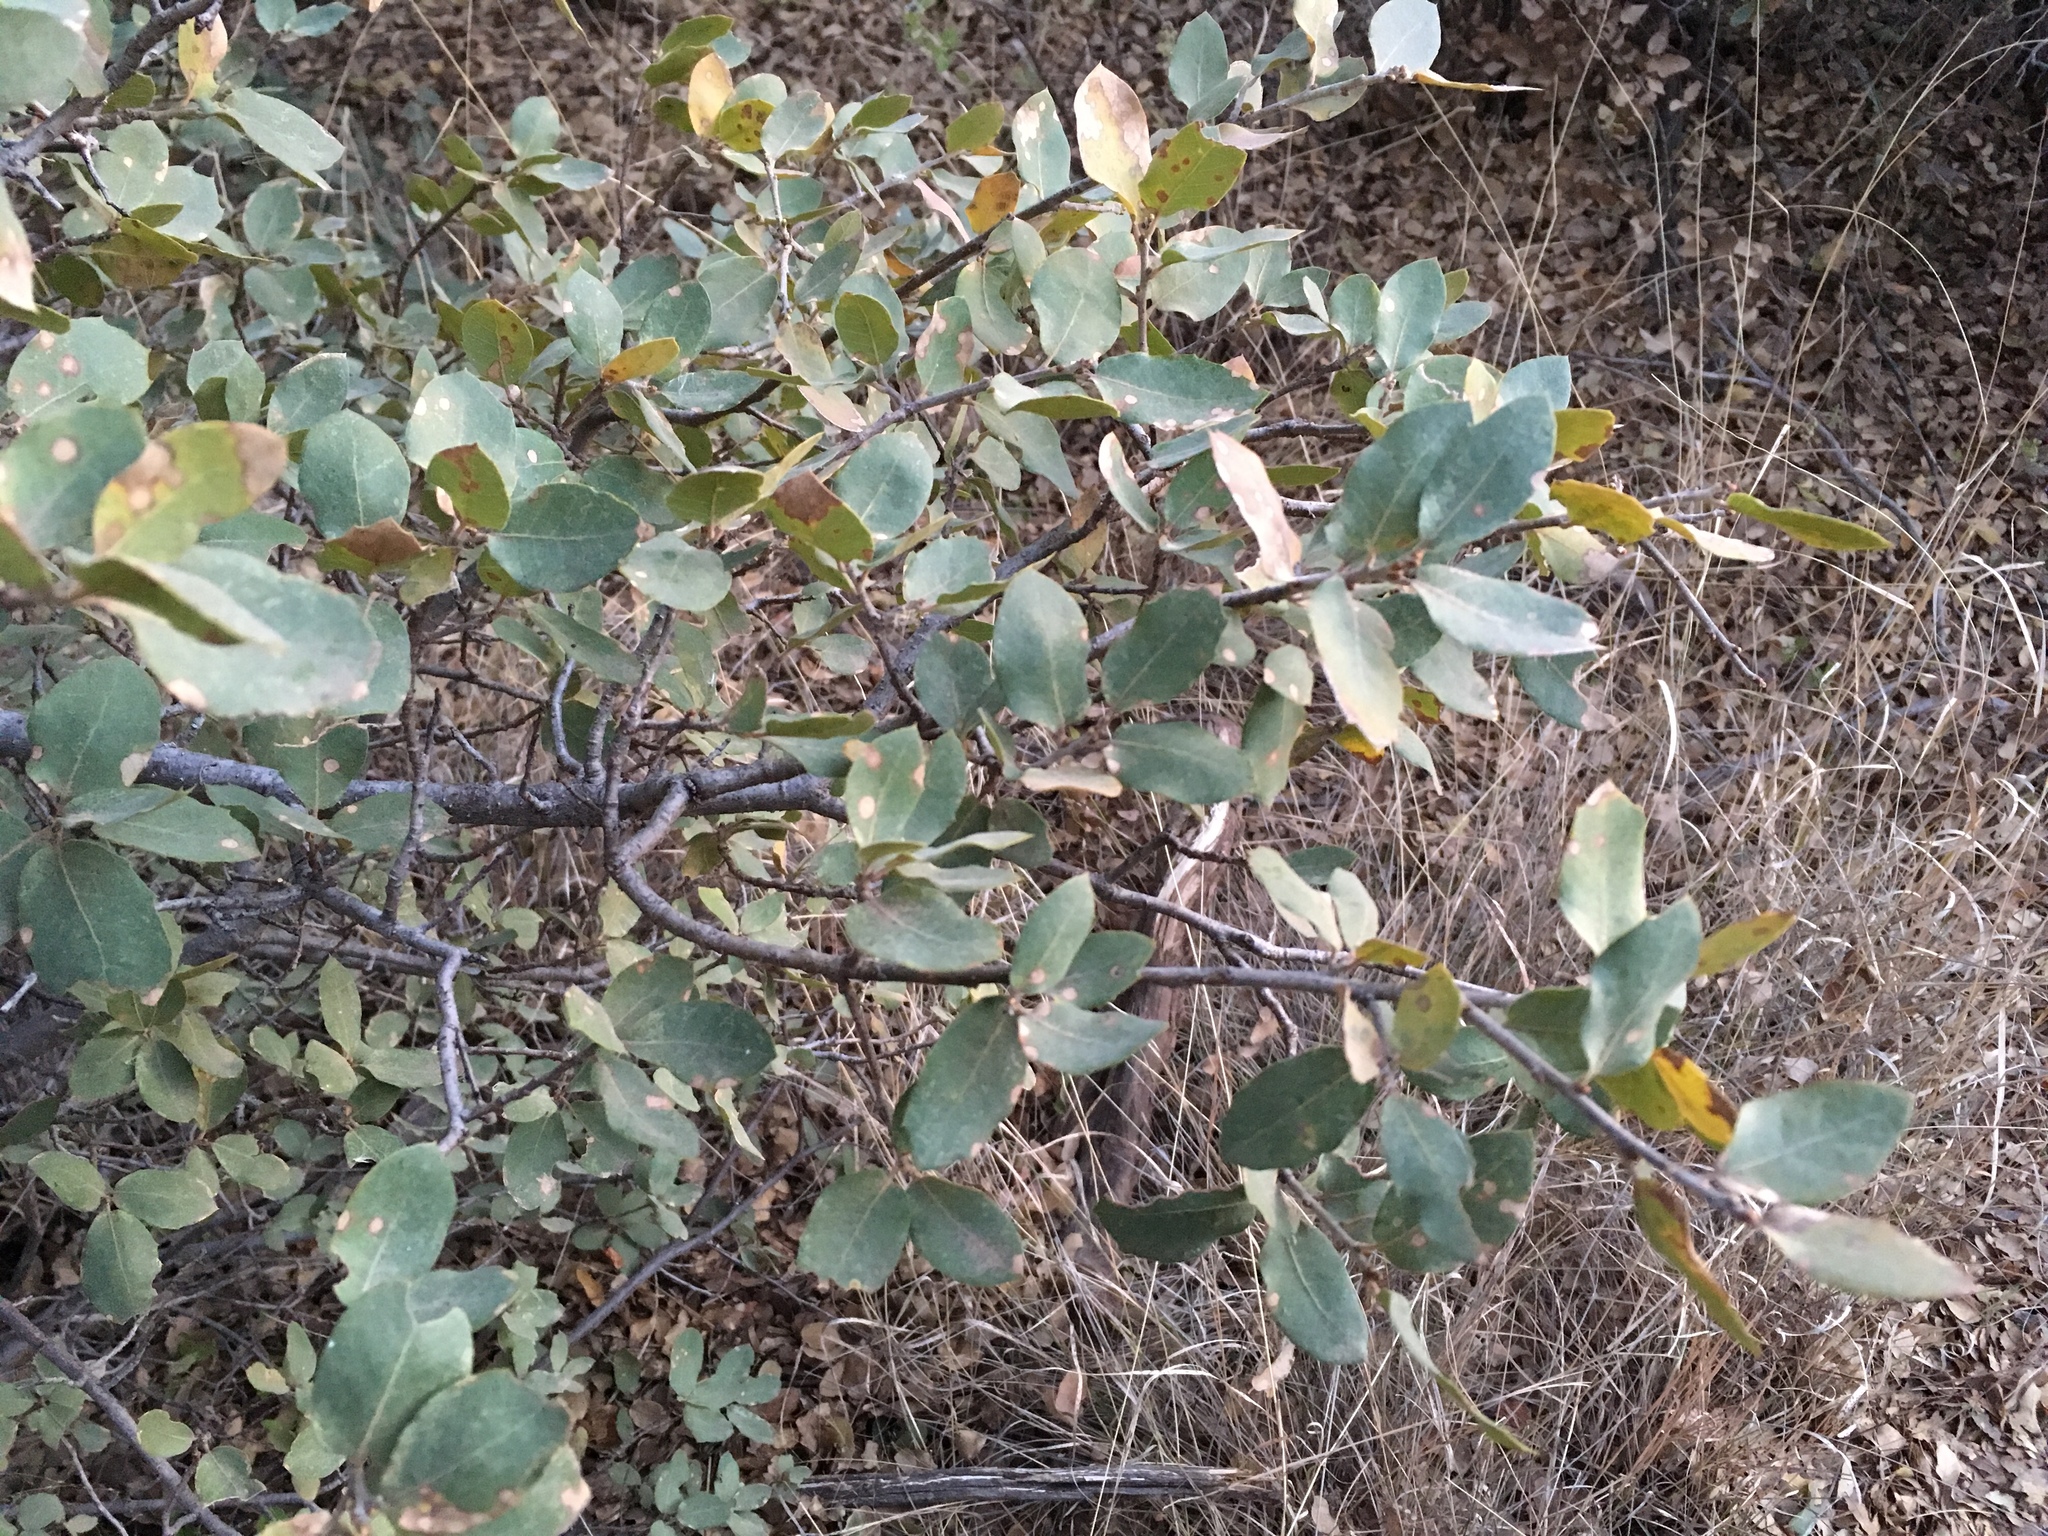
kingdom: Plantae
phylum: Tracheophyta
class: Magnoliopsida
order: Fagales
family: Fagaceae
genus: Quercus
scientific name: Quercus grisea
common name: Gray oak
